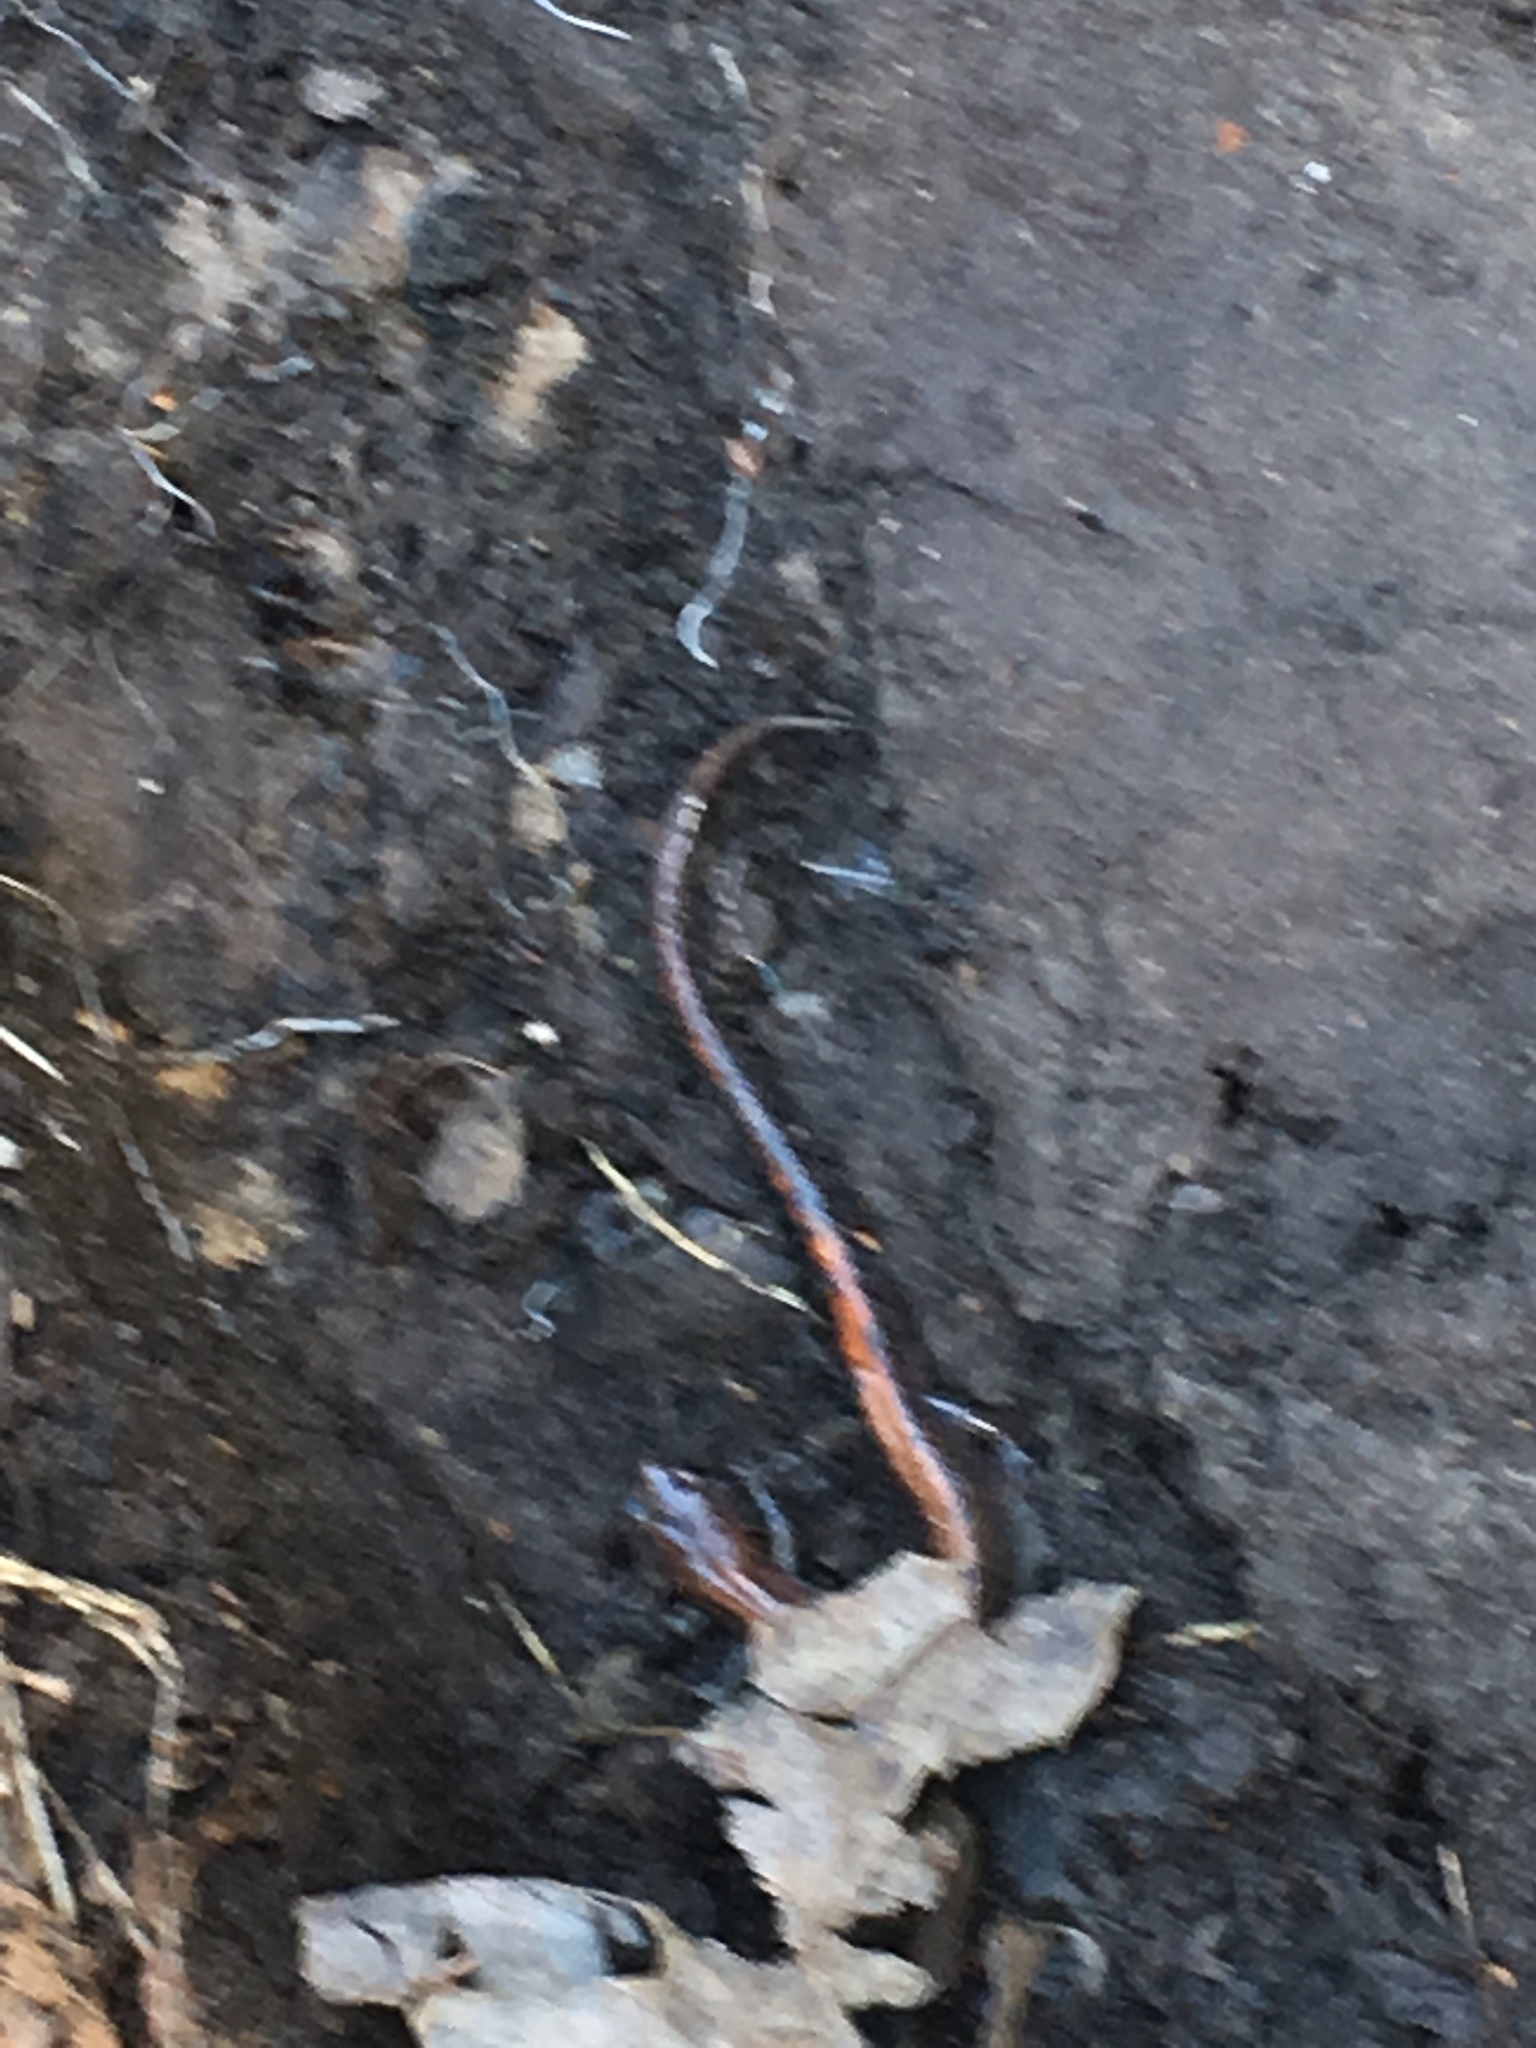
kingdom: Animalia
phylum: Chordata
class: Amphibia
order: Caudata
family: Plethodontidae
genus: Plethodon
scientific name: Plethodon cinereus
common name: Redback salamander
